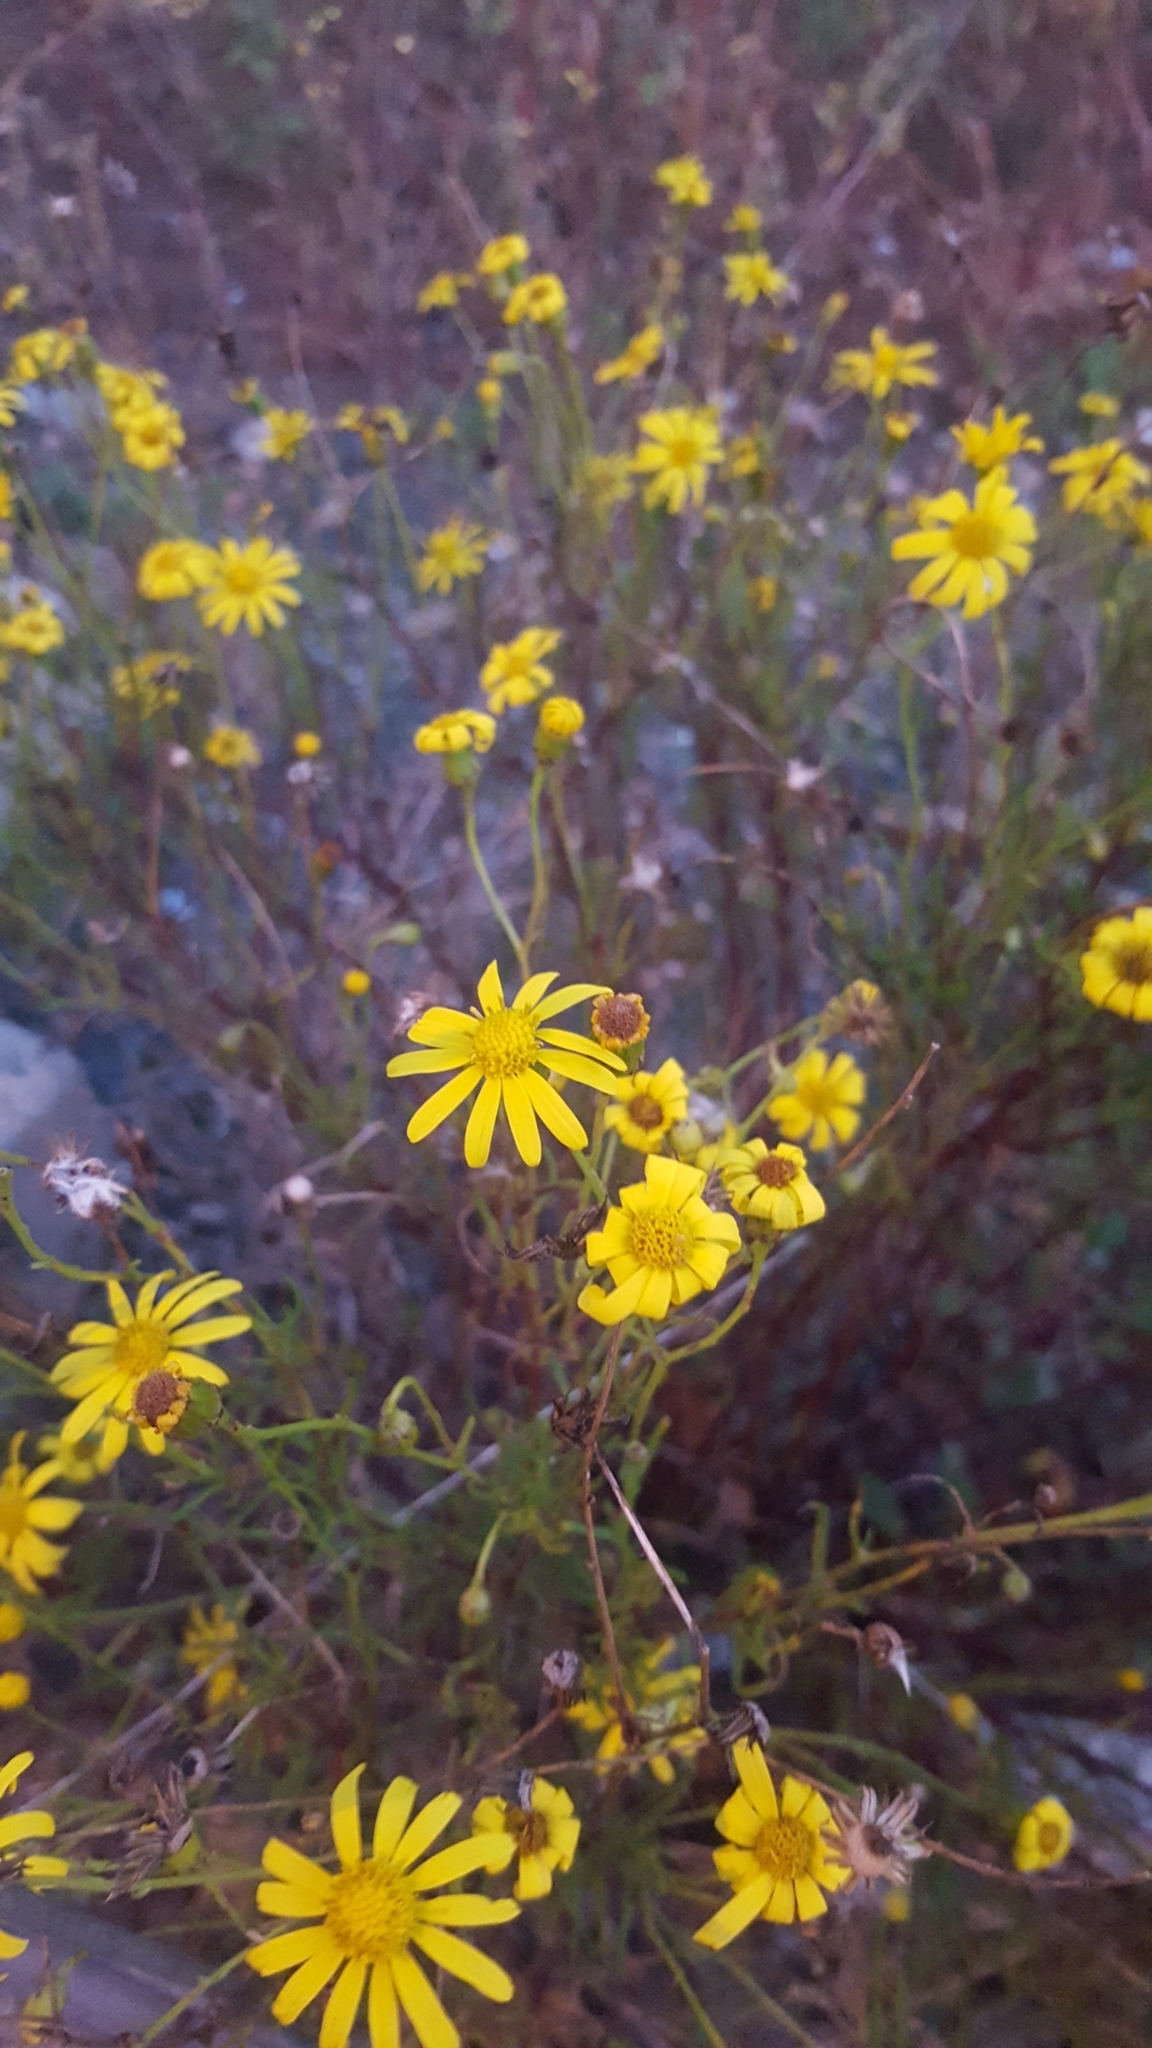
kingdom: Plantae
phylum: Tracheophyta
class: Magnoliopsida
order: Asterales
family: Asteraceae
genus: Senecio
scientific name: Senecio inaequidens
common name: Narrow-leaved ragwort
